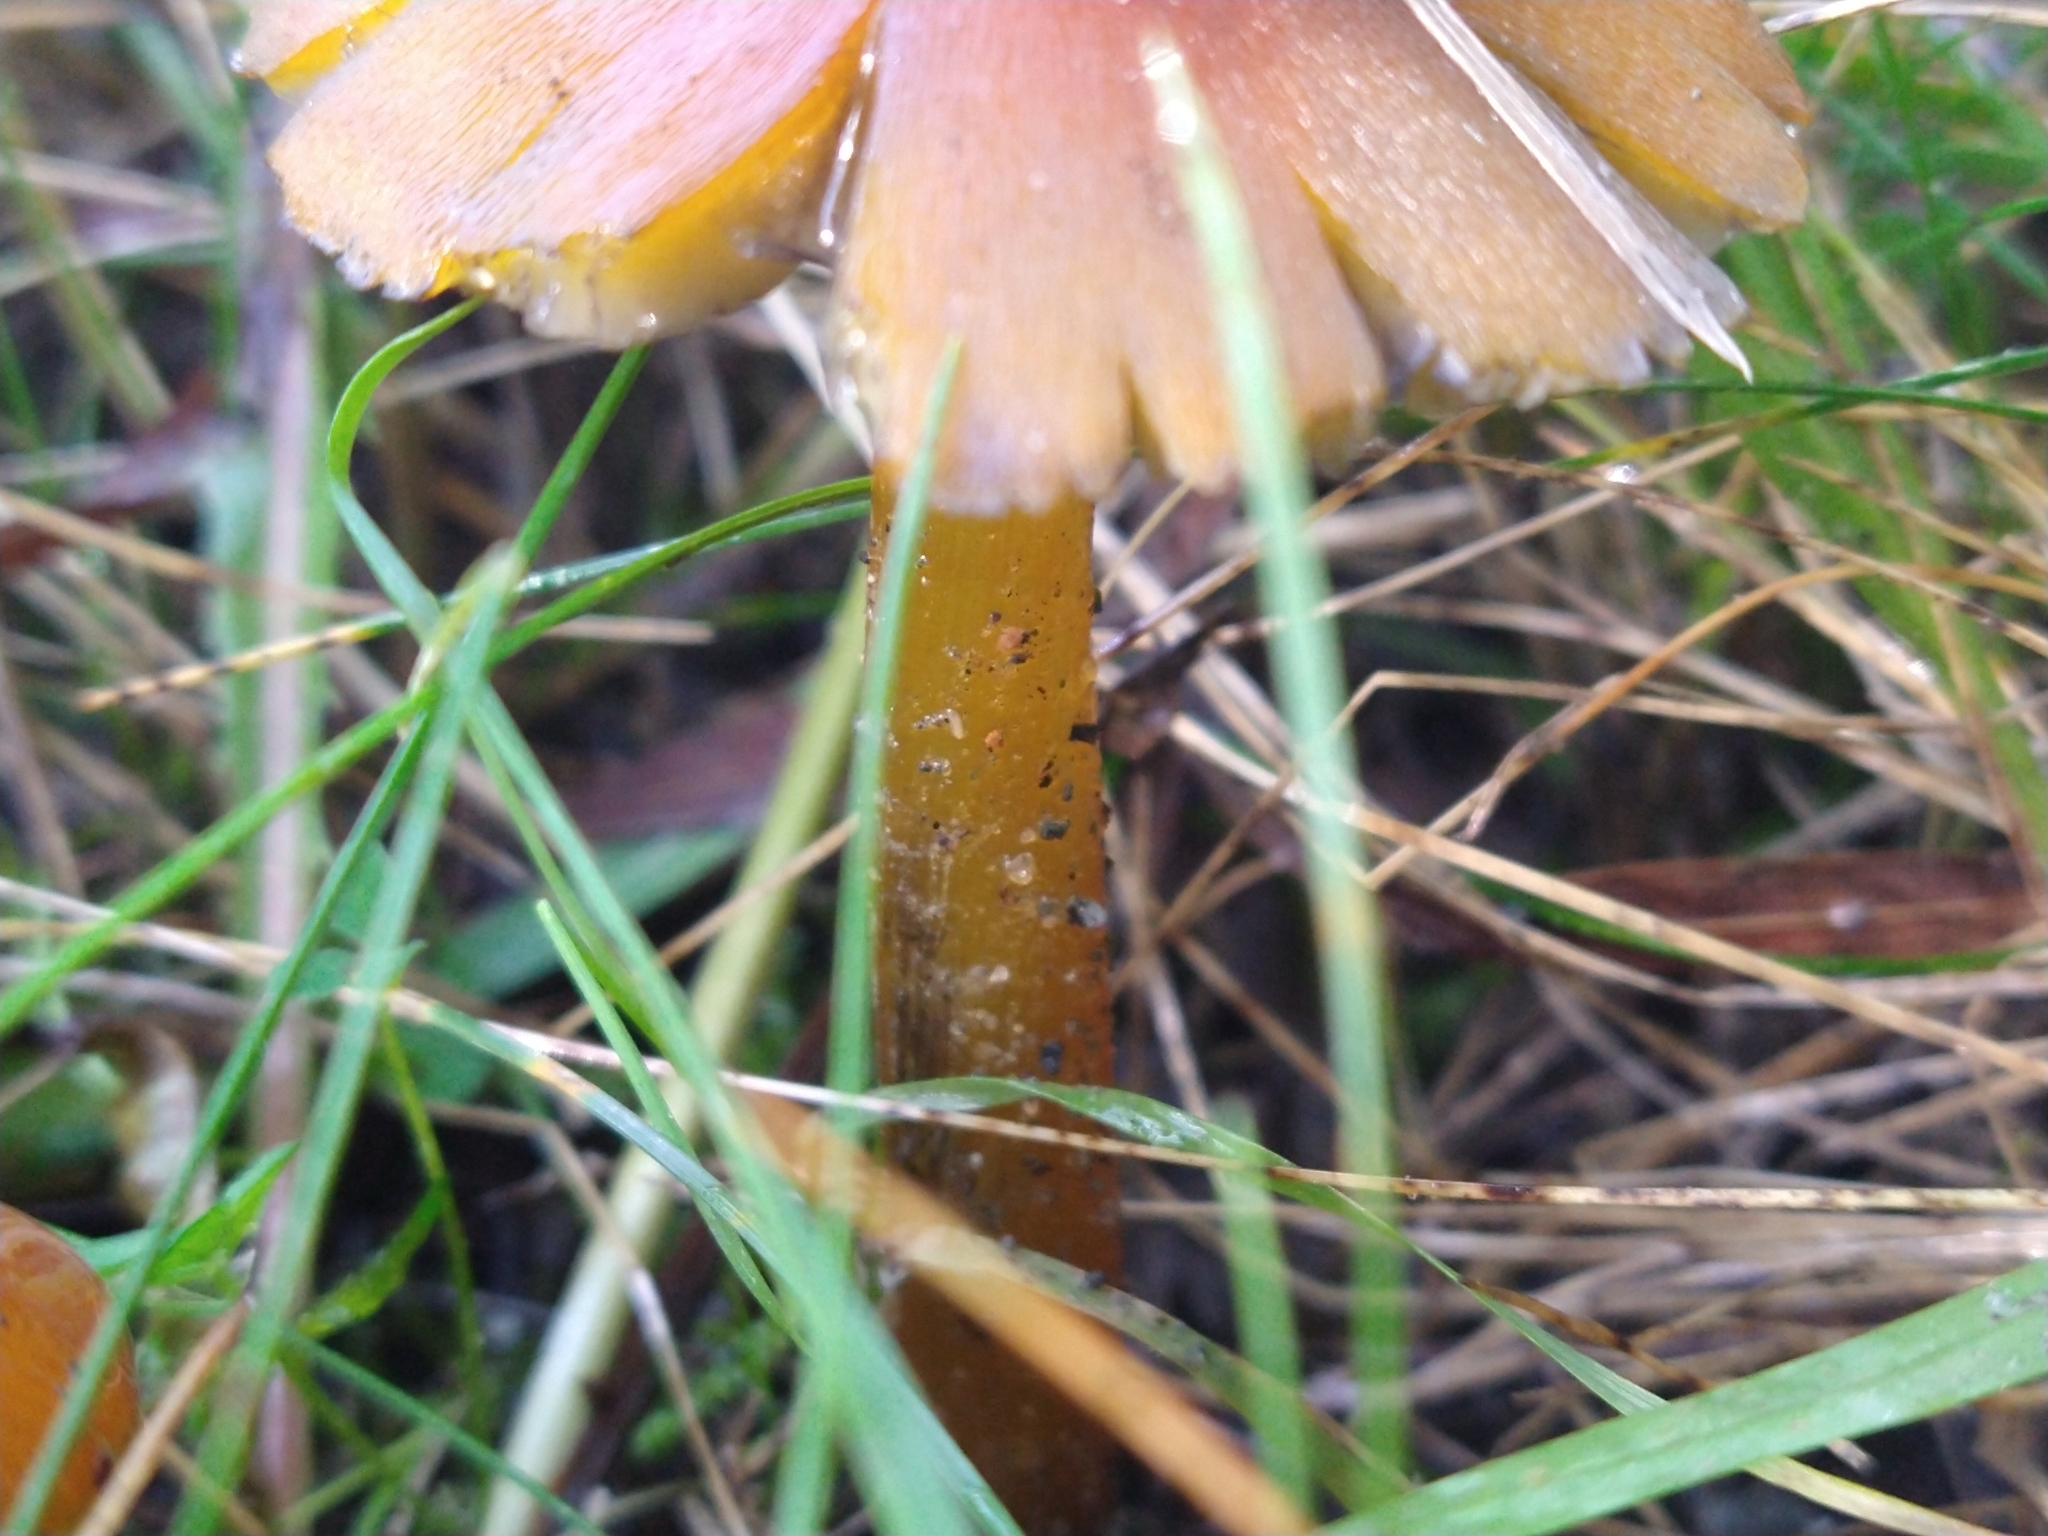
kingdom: Fungi
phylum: Basidiomycota
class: Agaricomycetes
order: Agaricales
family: Hygrophoraceae
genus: Hygrocybe
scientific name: Hygrocybe conica
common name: Blackening wax-cap
